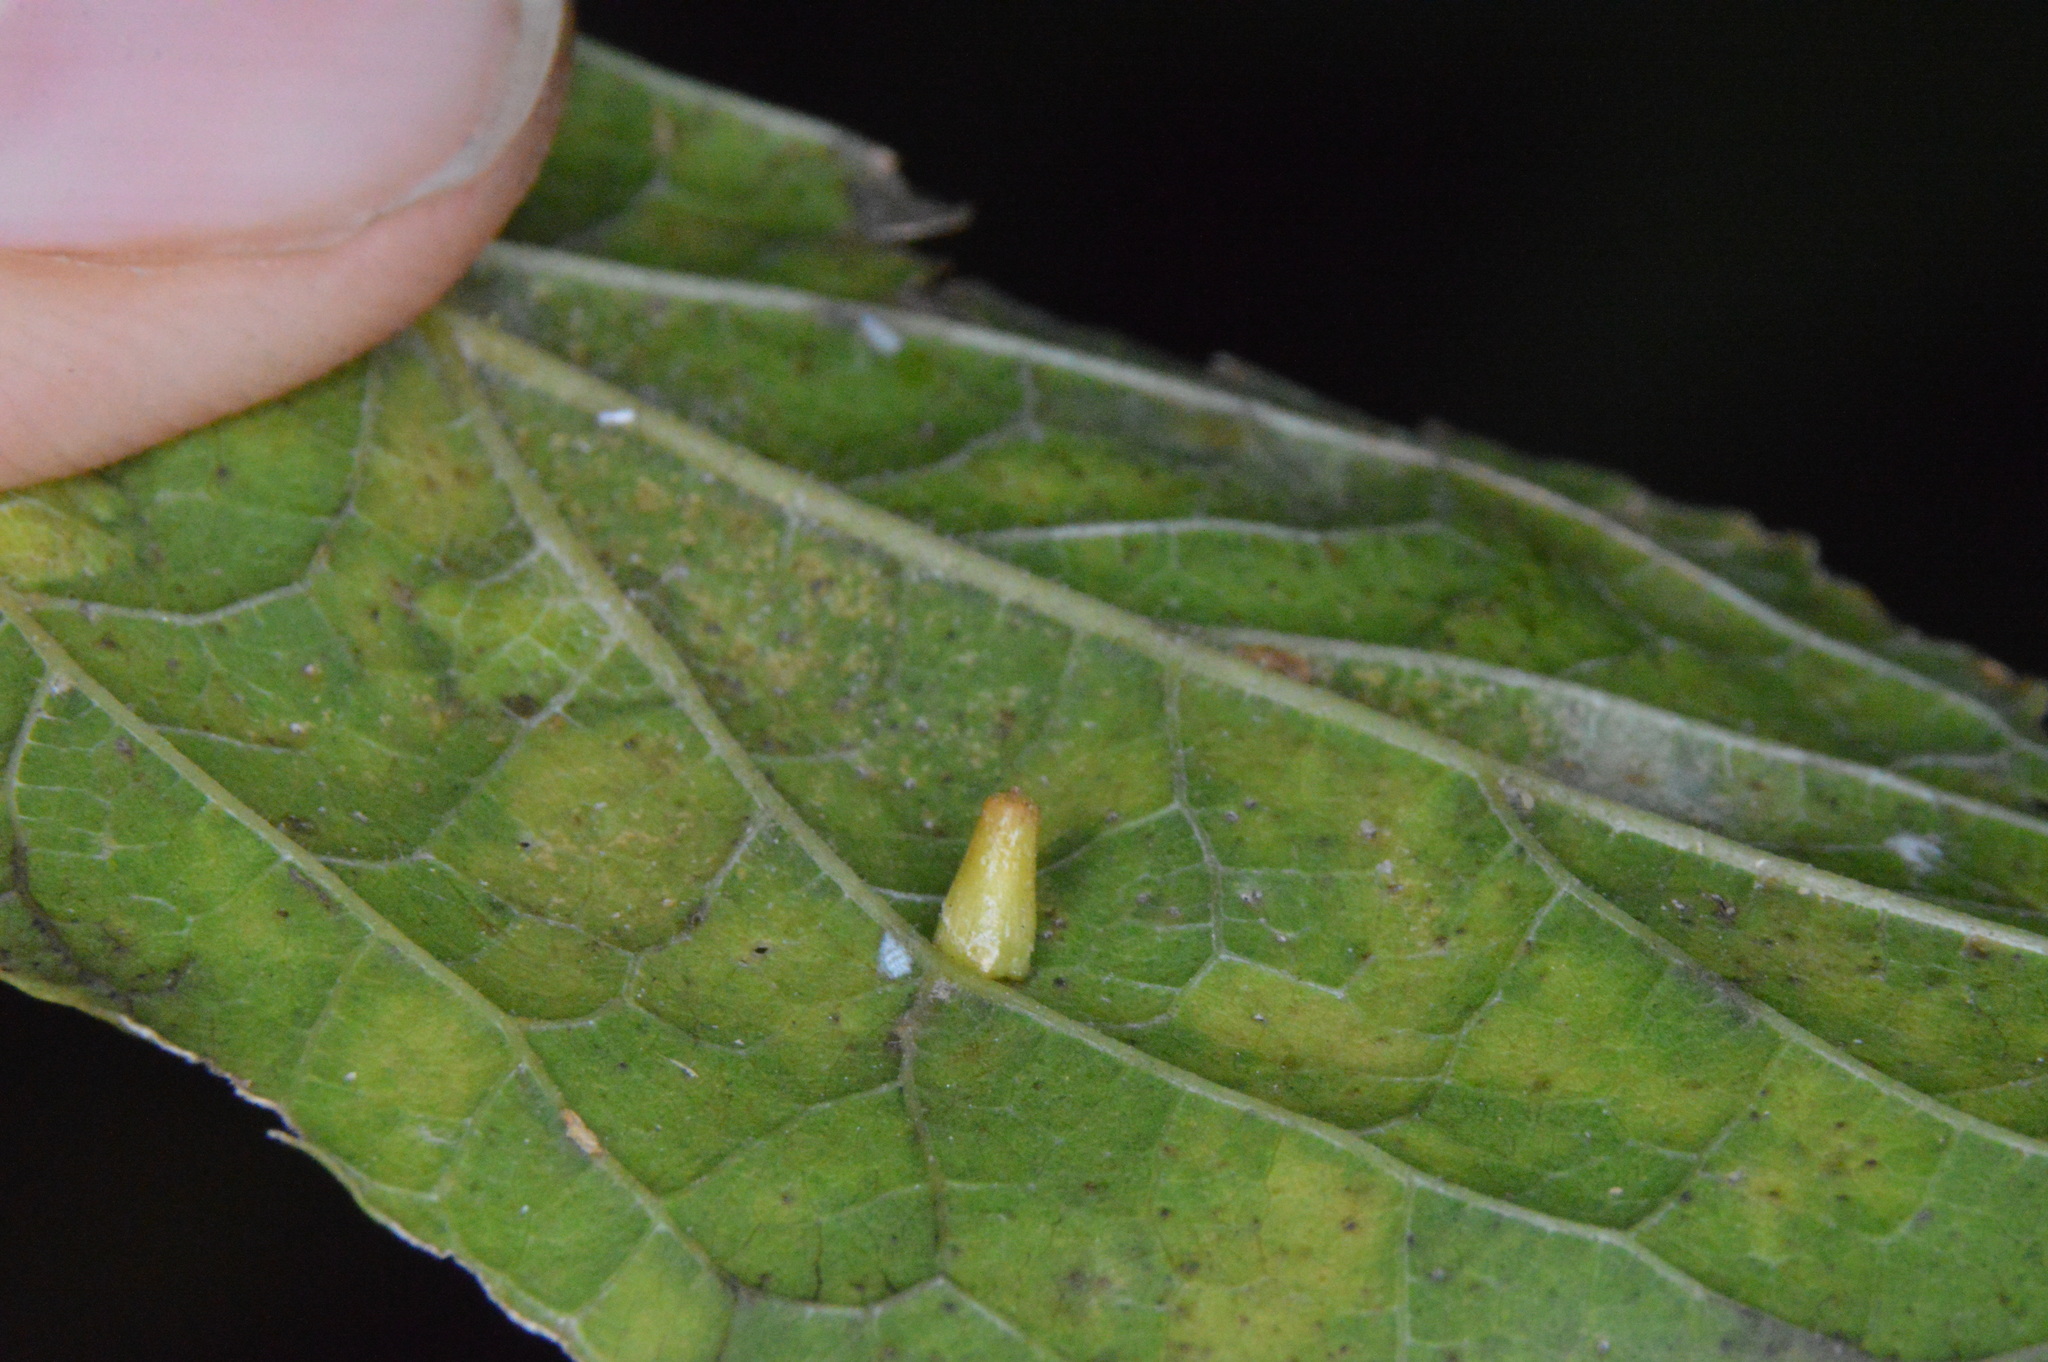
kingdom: Animalia
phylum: Arthropoda
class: Insecta
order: Diptera
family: Cecidomyiidae
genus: Celticecis
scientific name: Celticecis aciculata
